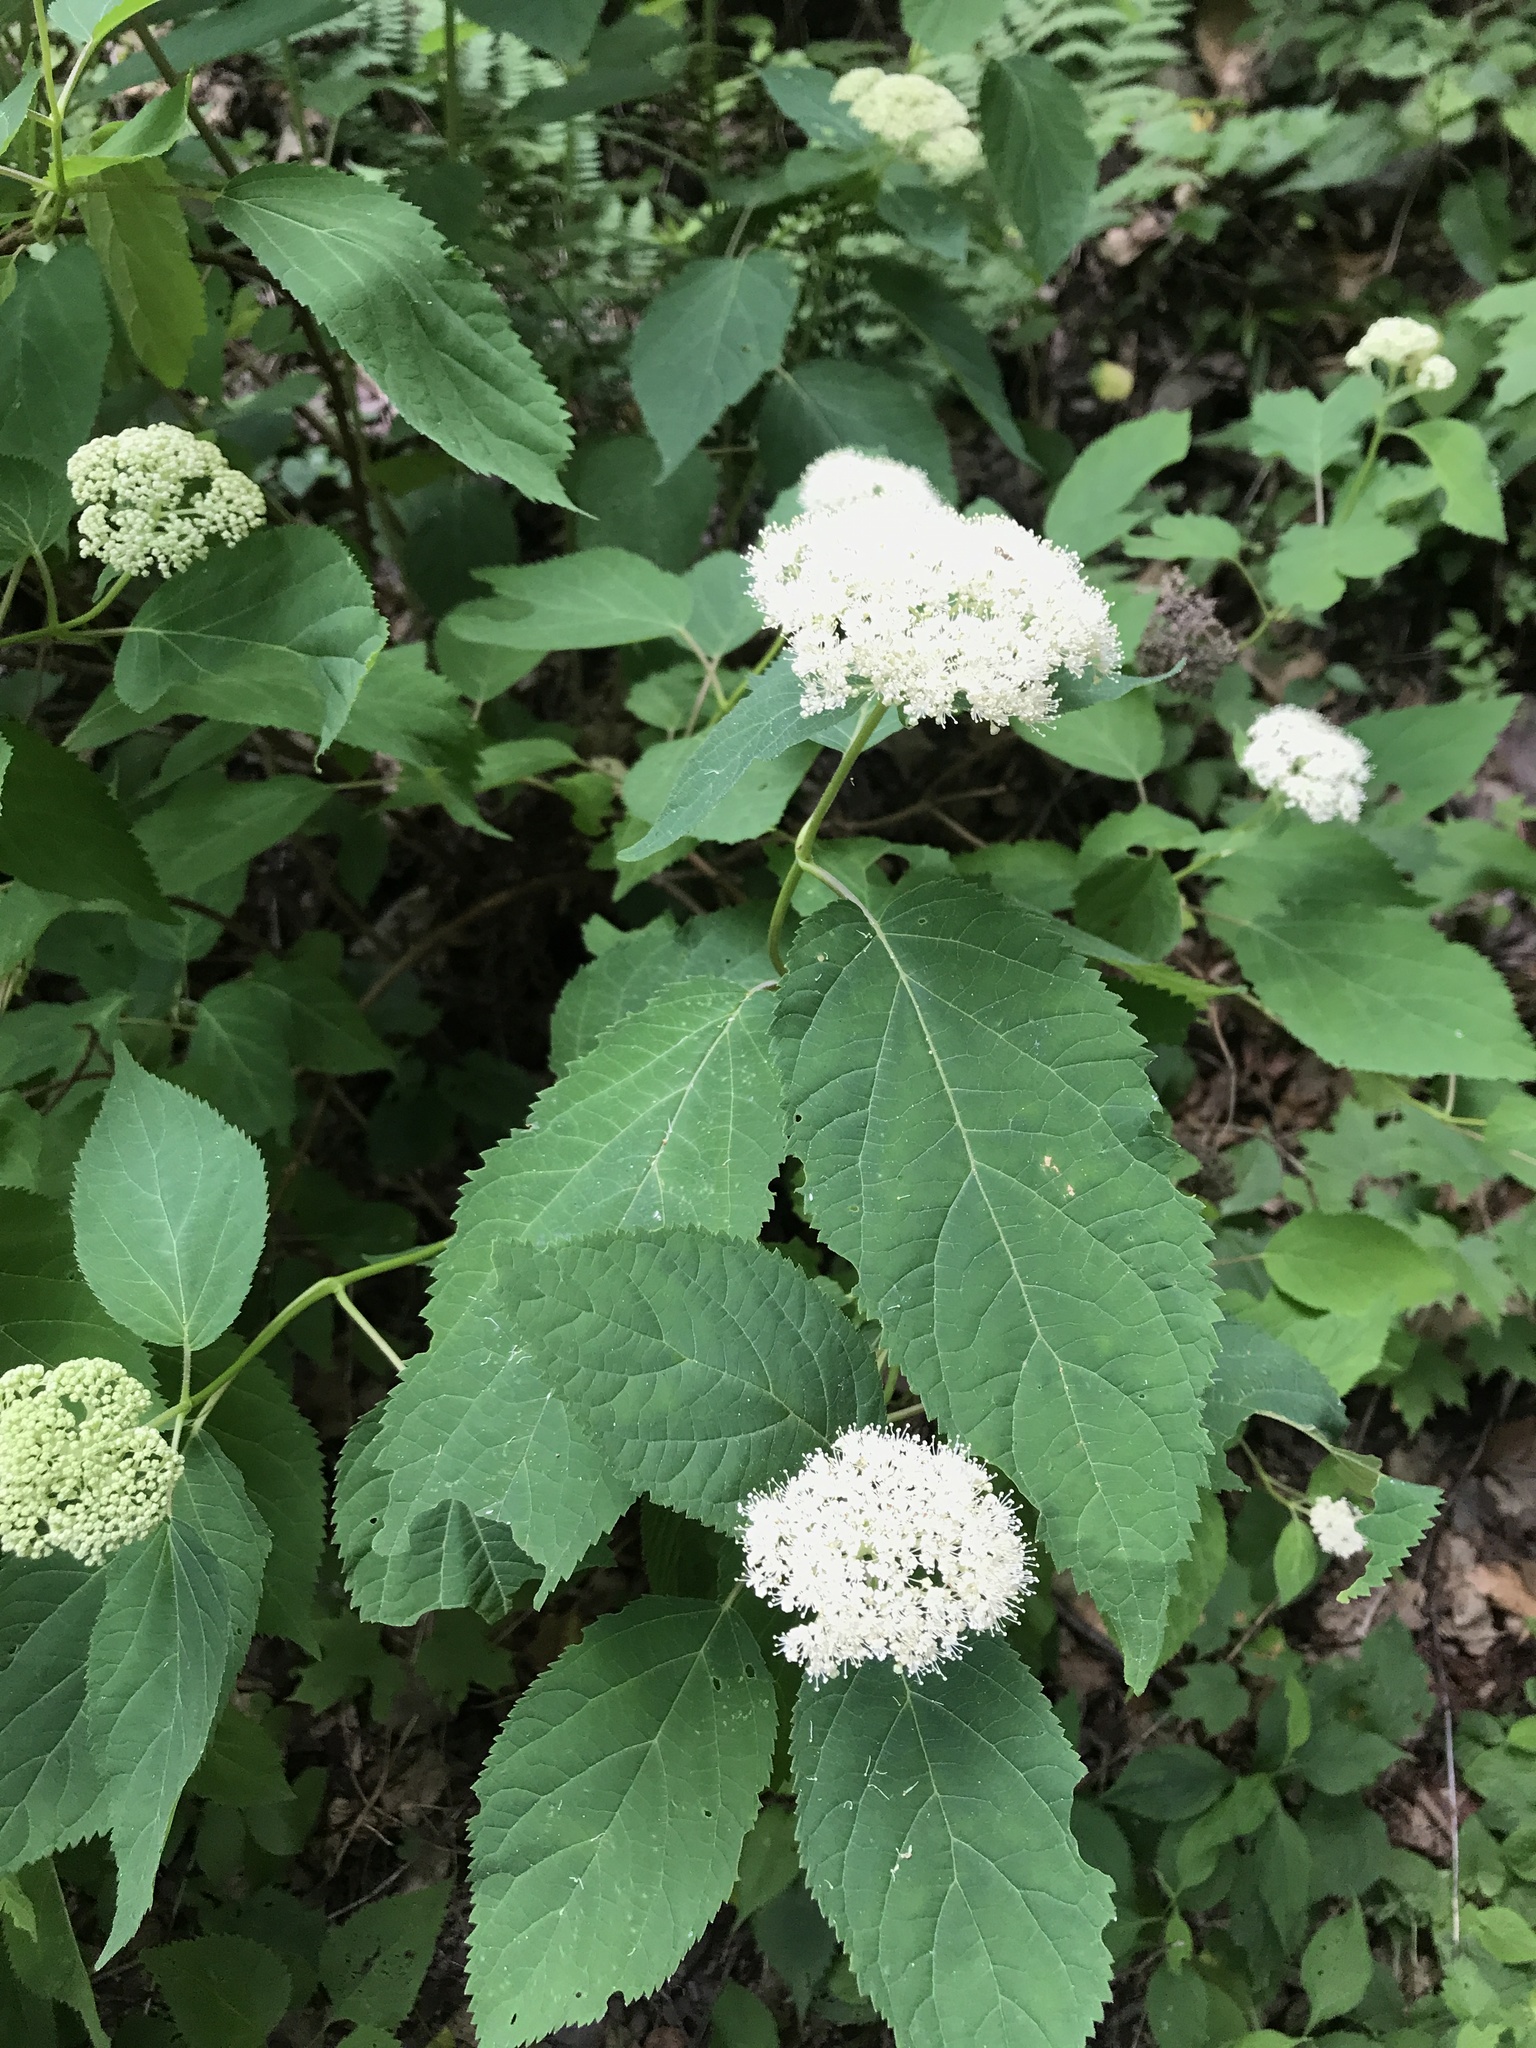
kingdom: Plantae
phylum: Tracheophyta
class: Magnoliopsida
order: Cornales
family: Hydrangeaceae
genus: Hydrangea
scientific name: Hydrangea arborescens
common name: Sevenbark
